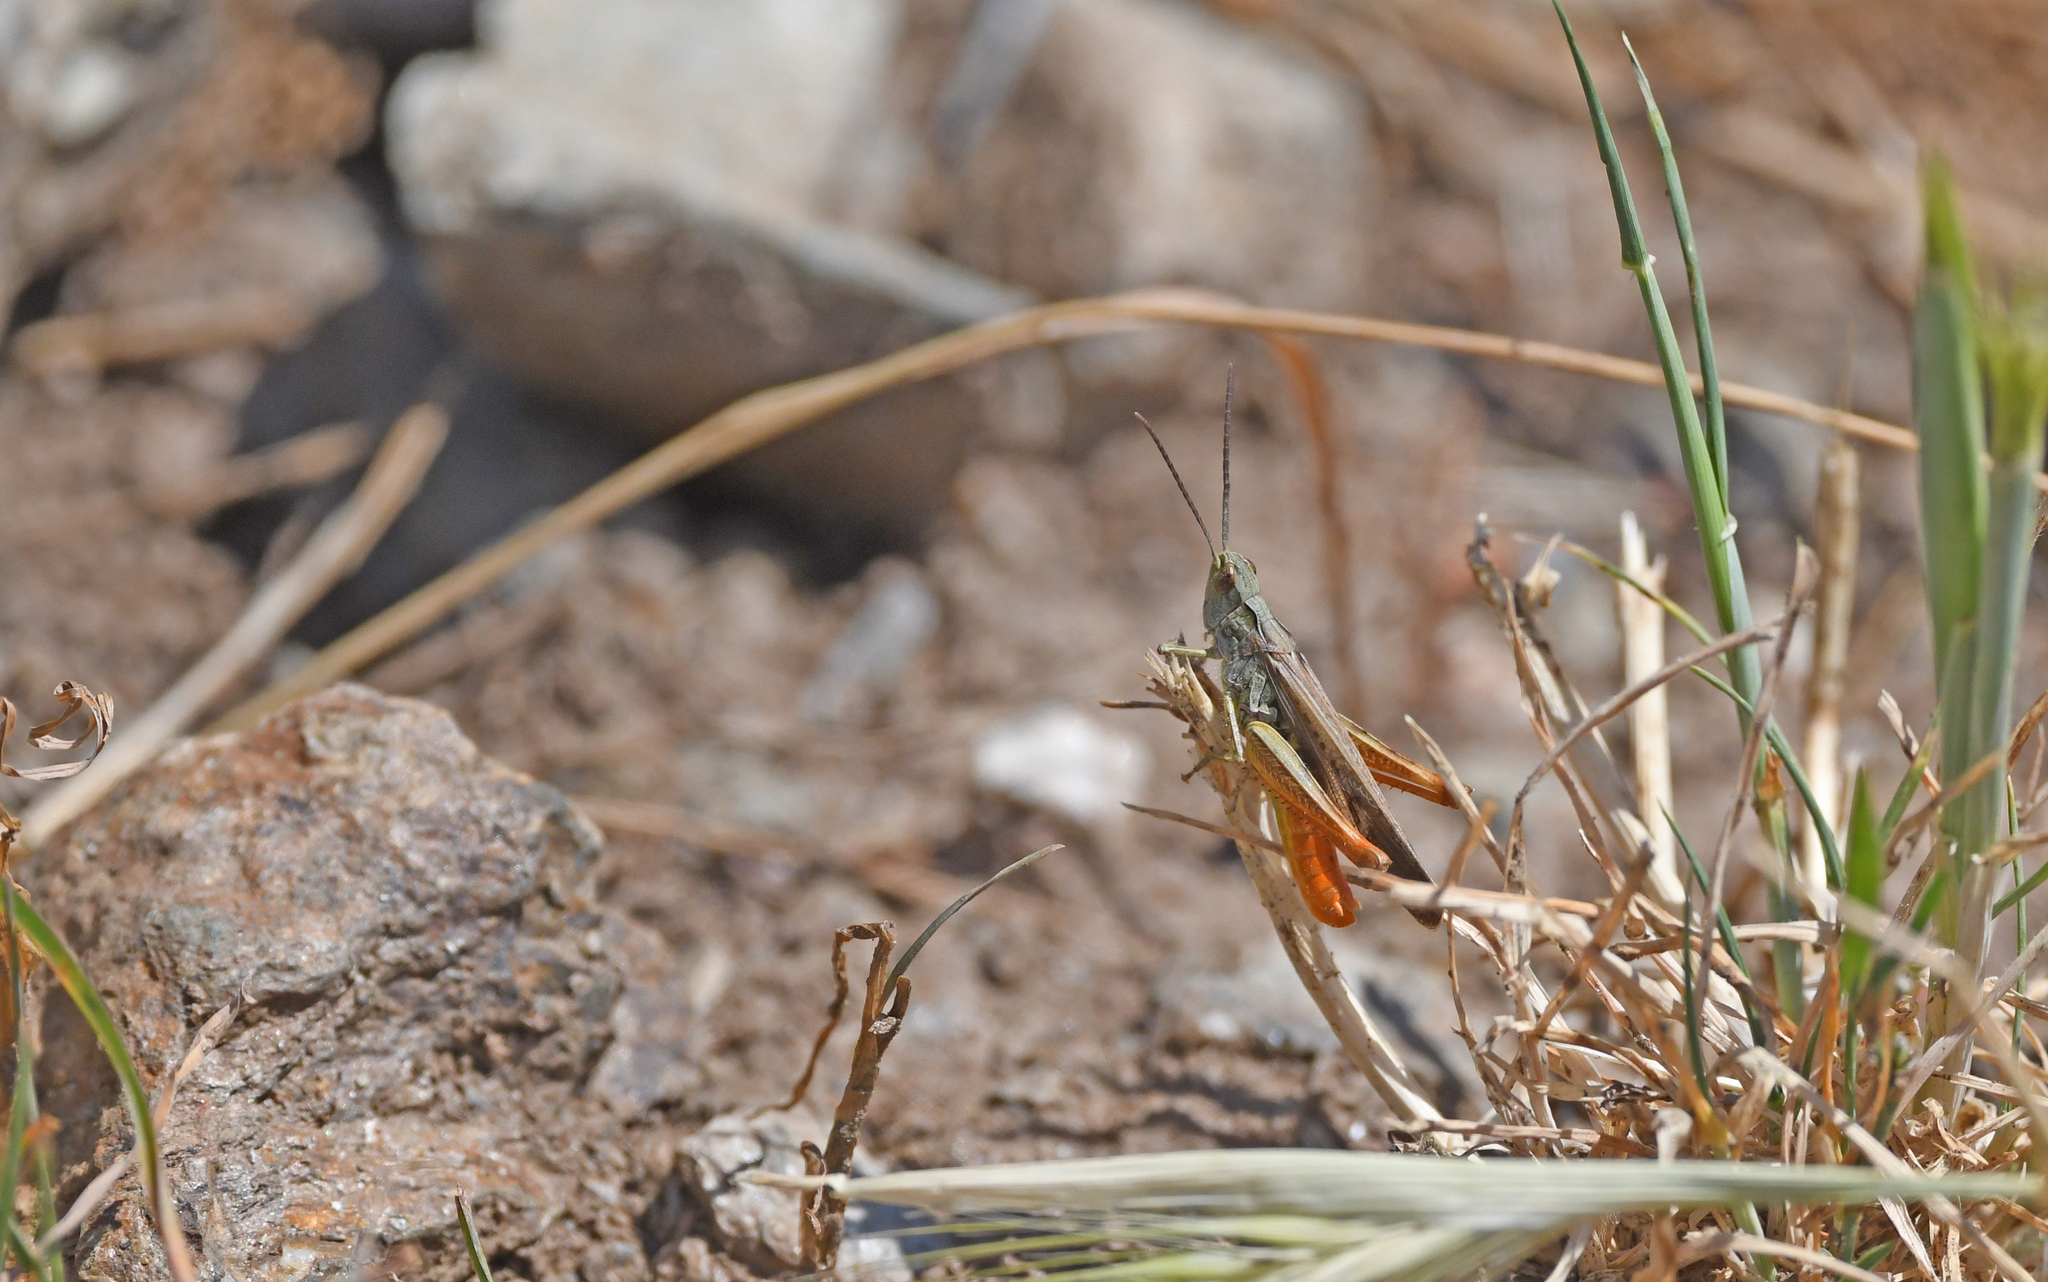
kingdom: Animalia
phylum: Arthropoda
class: Insecta
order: Orthoptera
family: Acrididae
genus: Chorthippus
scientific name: Chorthippus brunneus
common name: Field grasshopper
